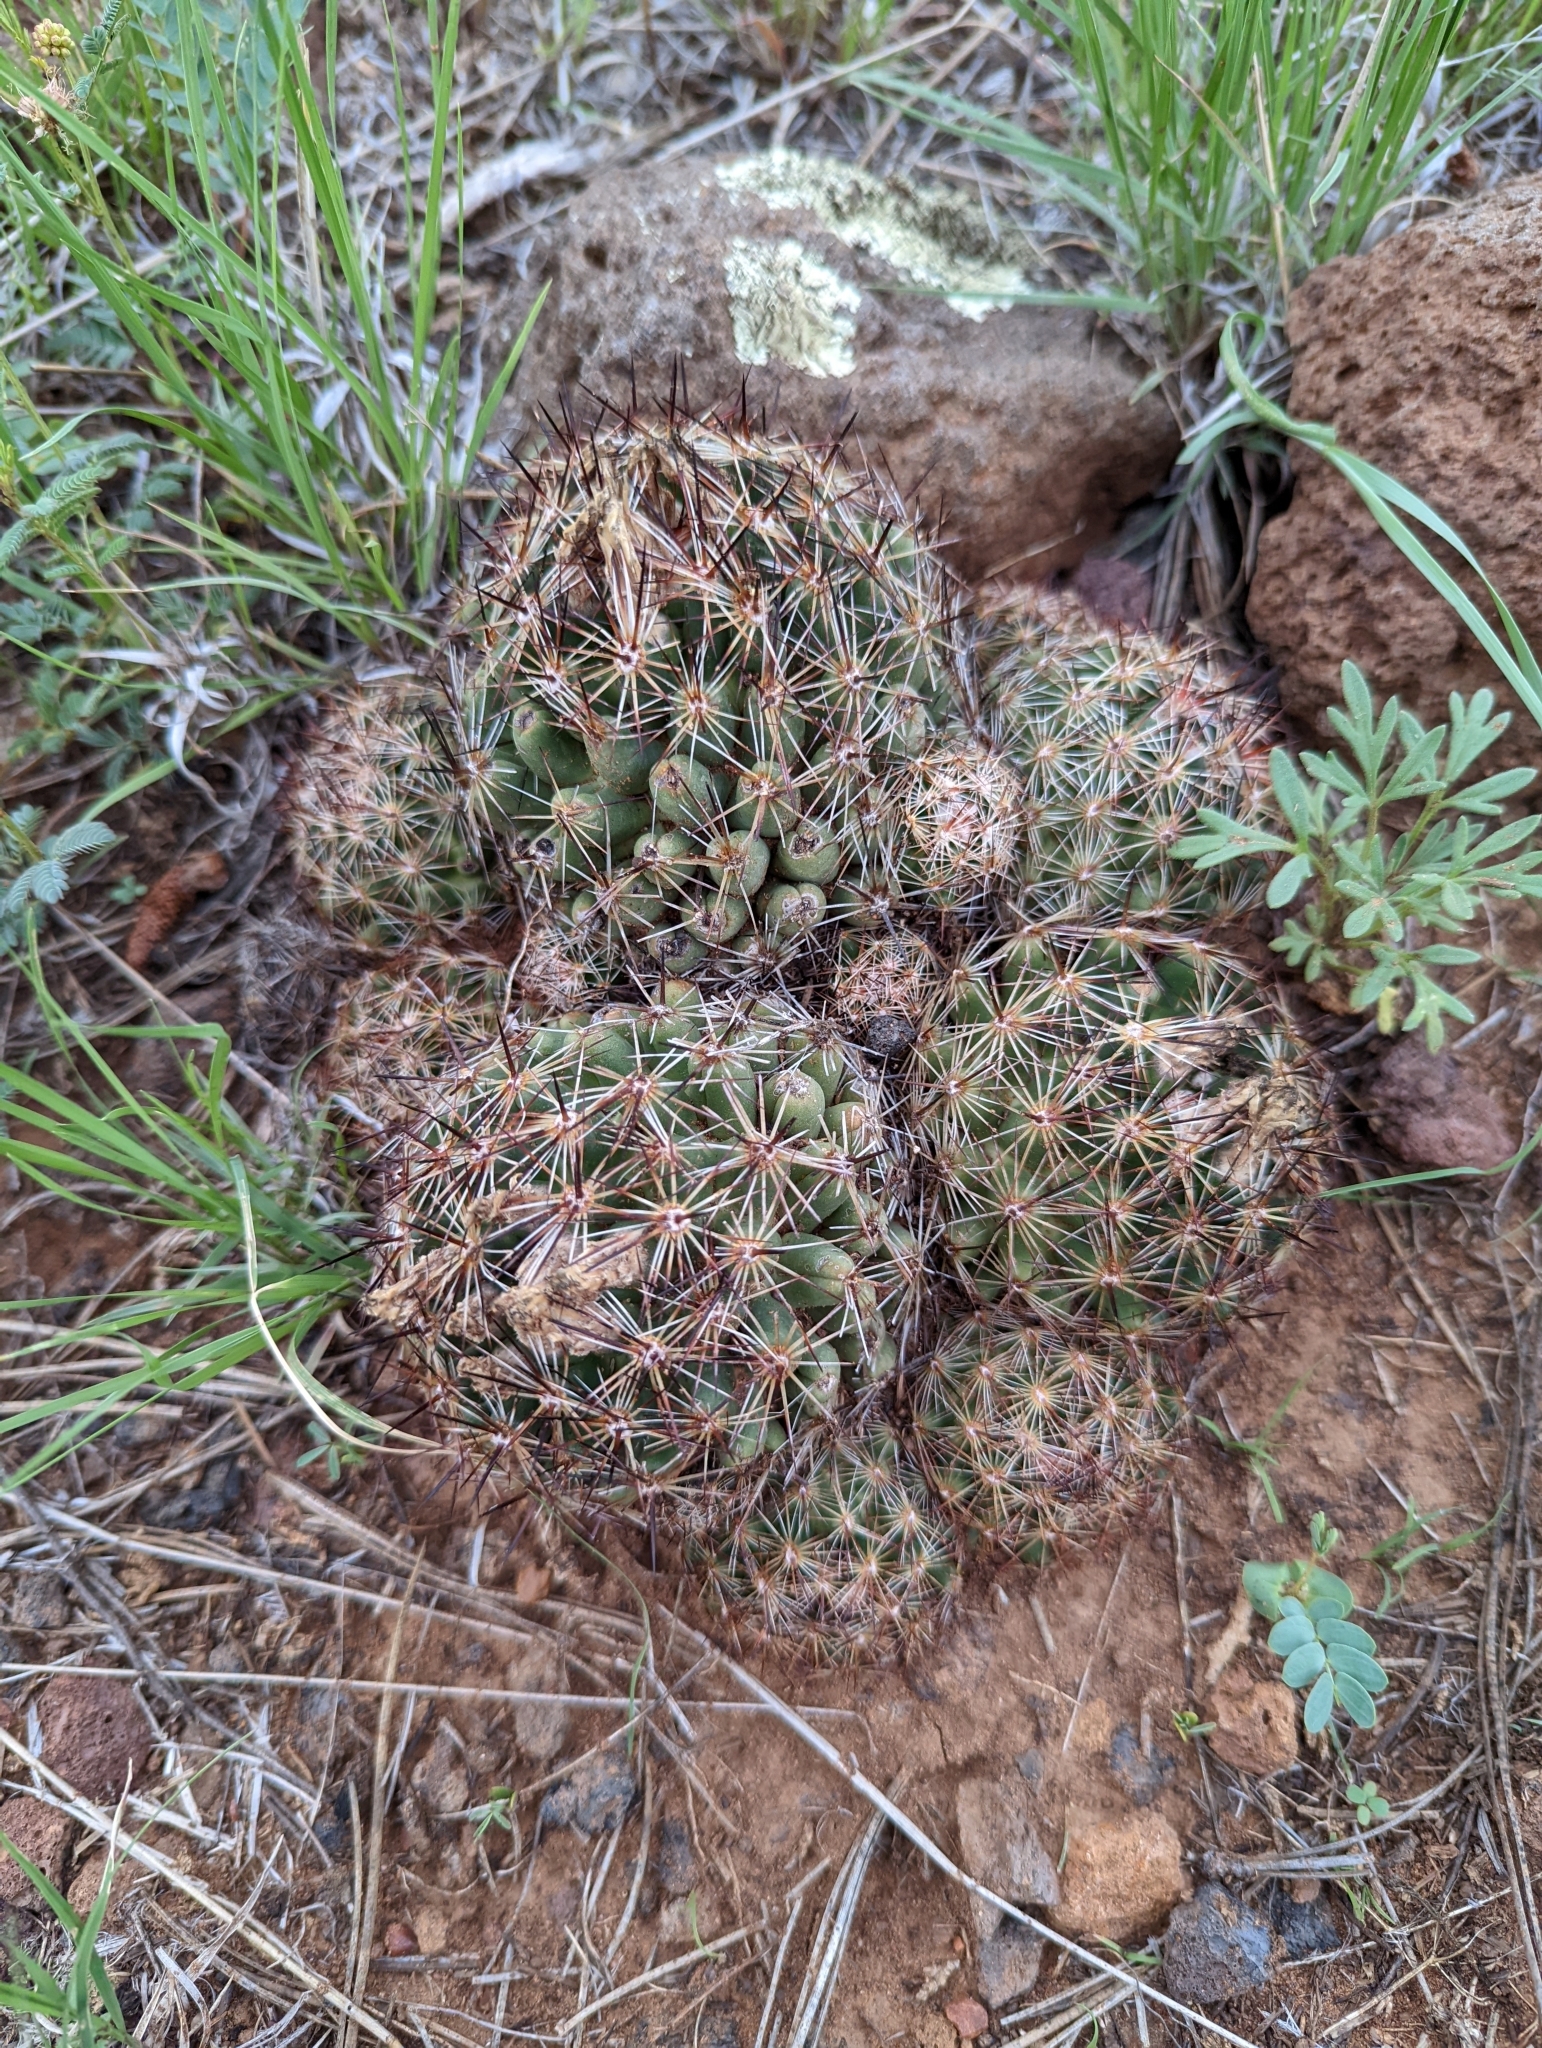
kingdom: Plantae
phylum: Tracheophyta
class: Magnoliopsida
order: Caryophyllales
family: Cactaceae
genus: Pelecyphora
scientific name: Pelecyphora vivipara
